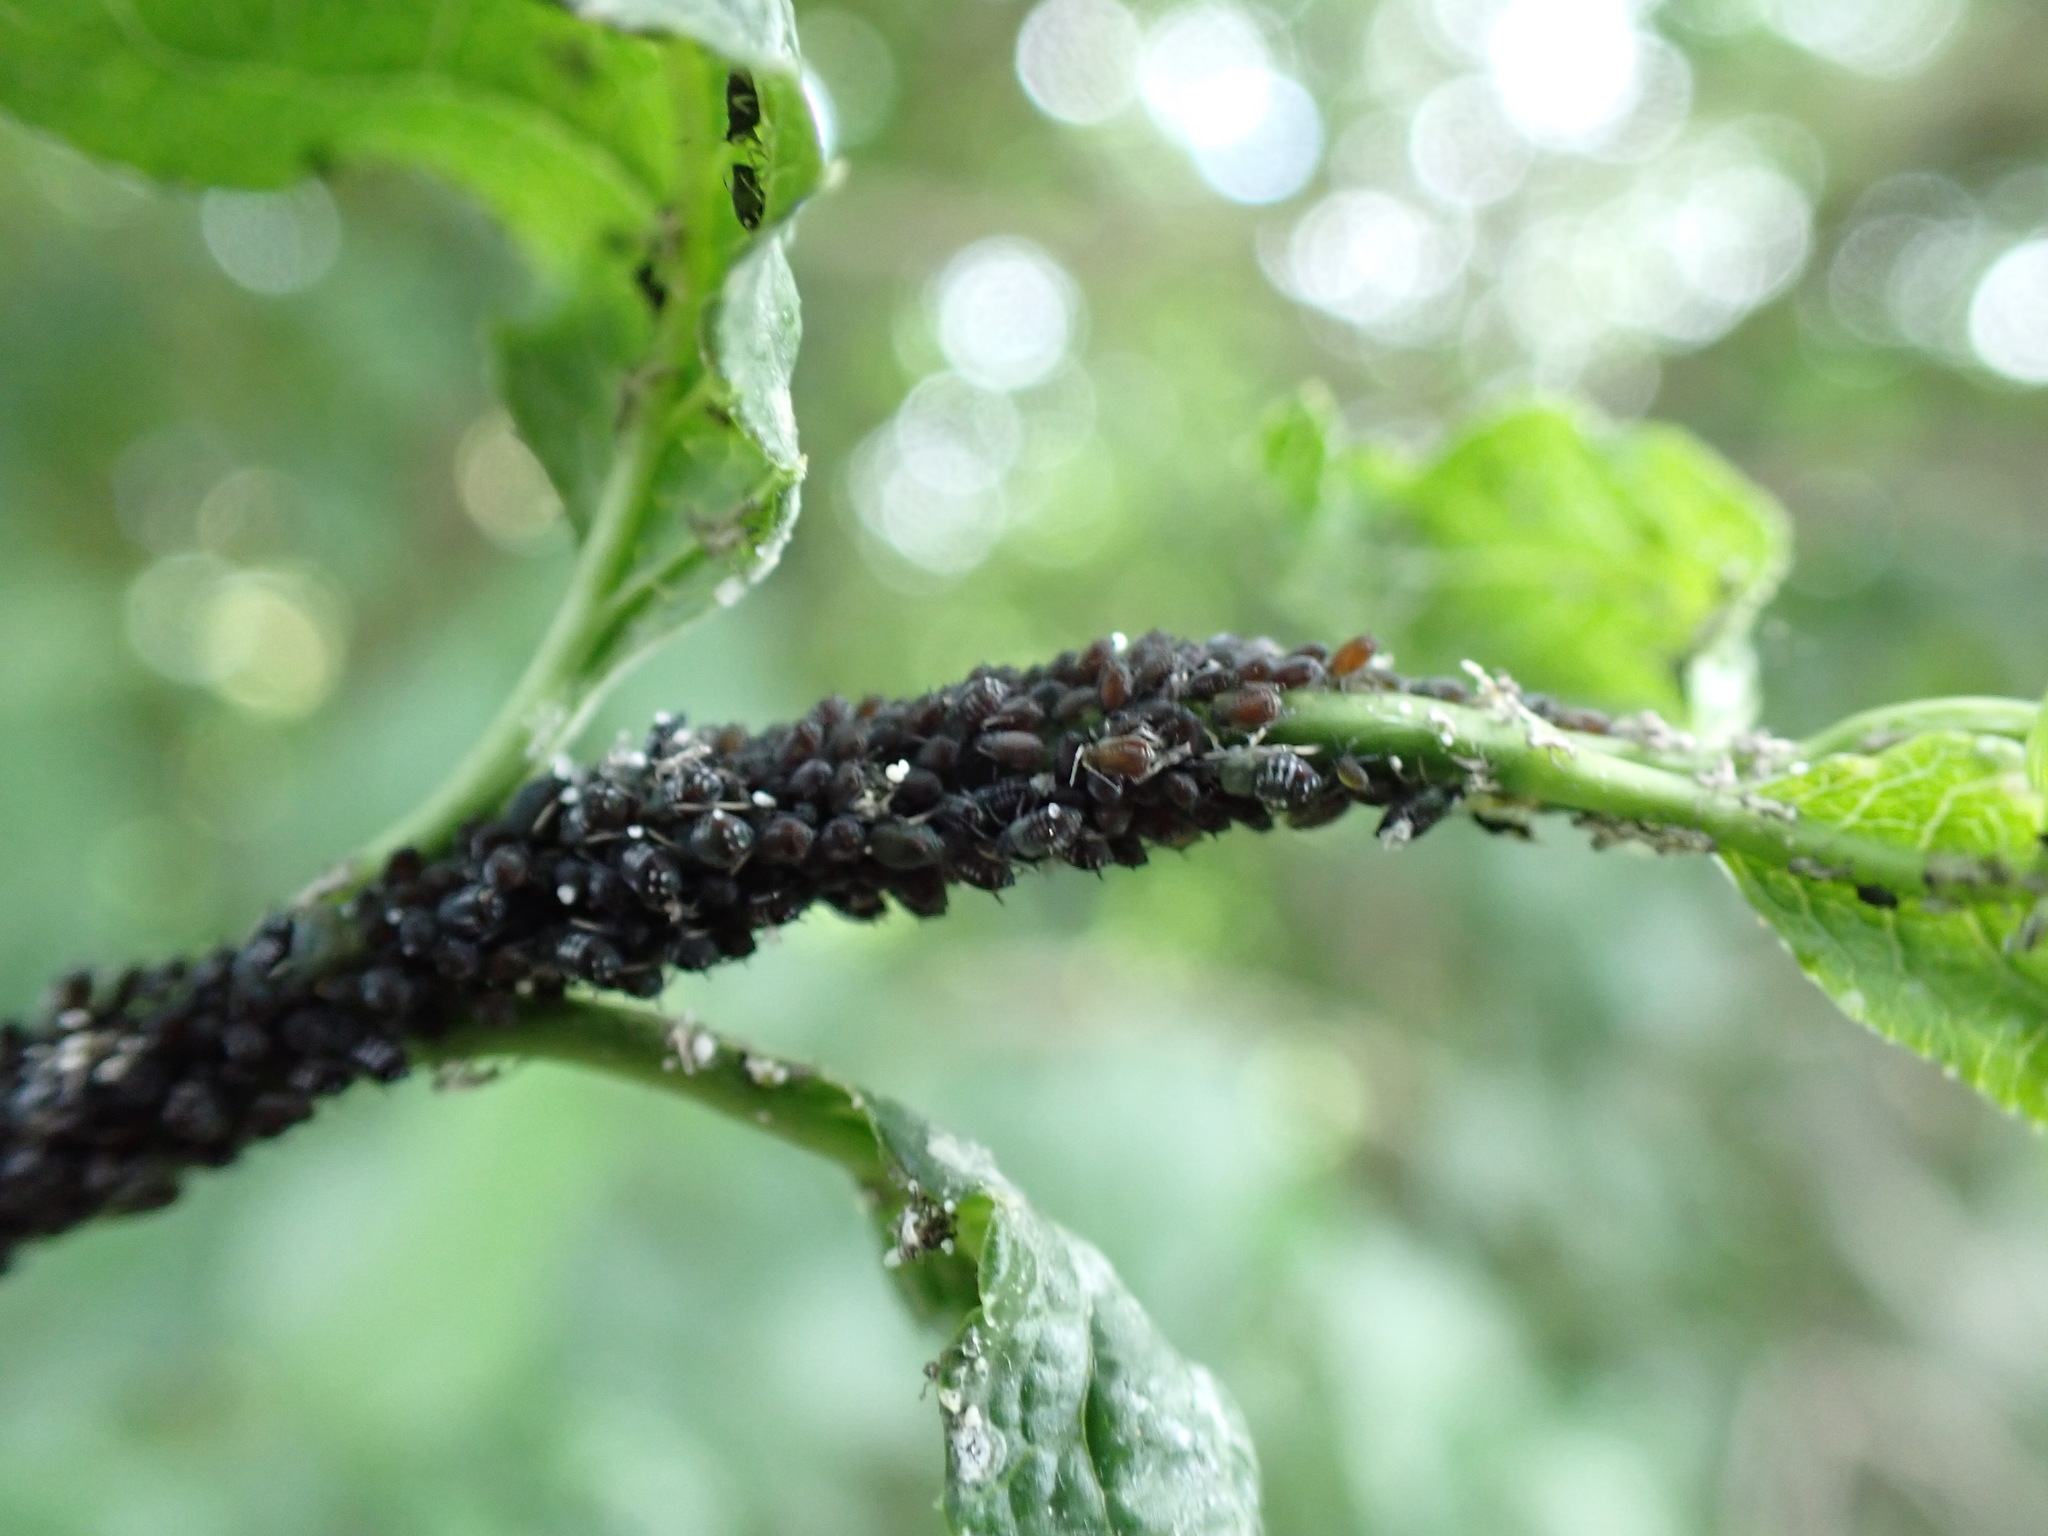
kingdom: Animalia
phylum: Arthropoda
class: Insecta
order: Hemiptera
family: Aphididae
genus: Aphis
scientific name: Aphis fabae
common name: Bean aphid
